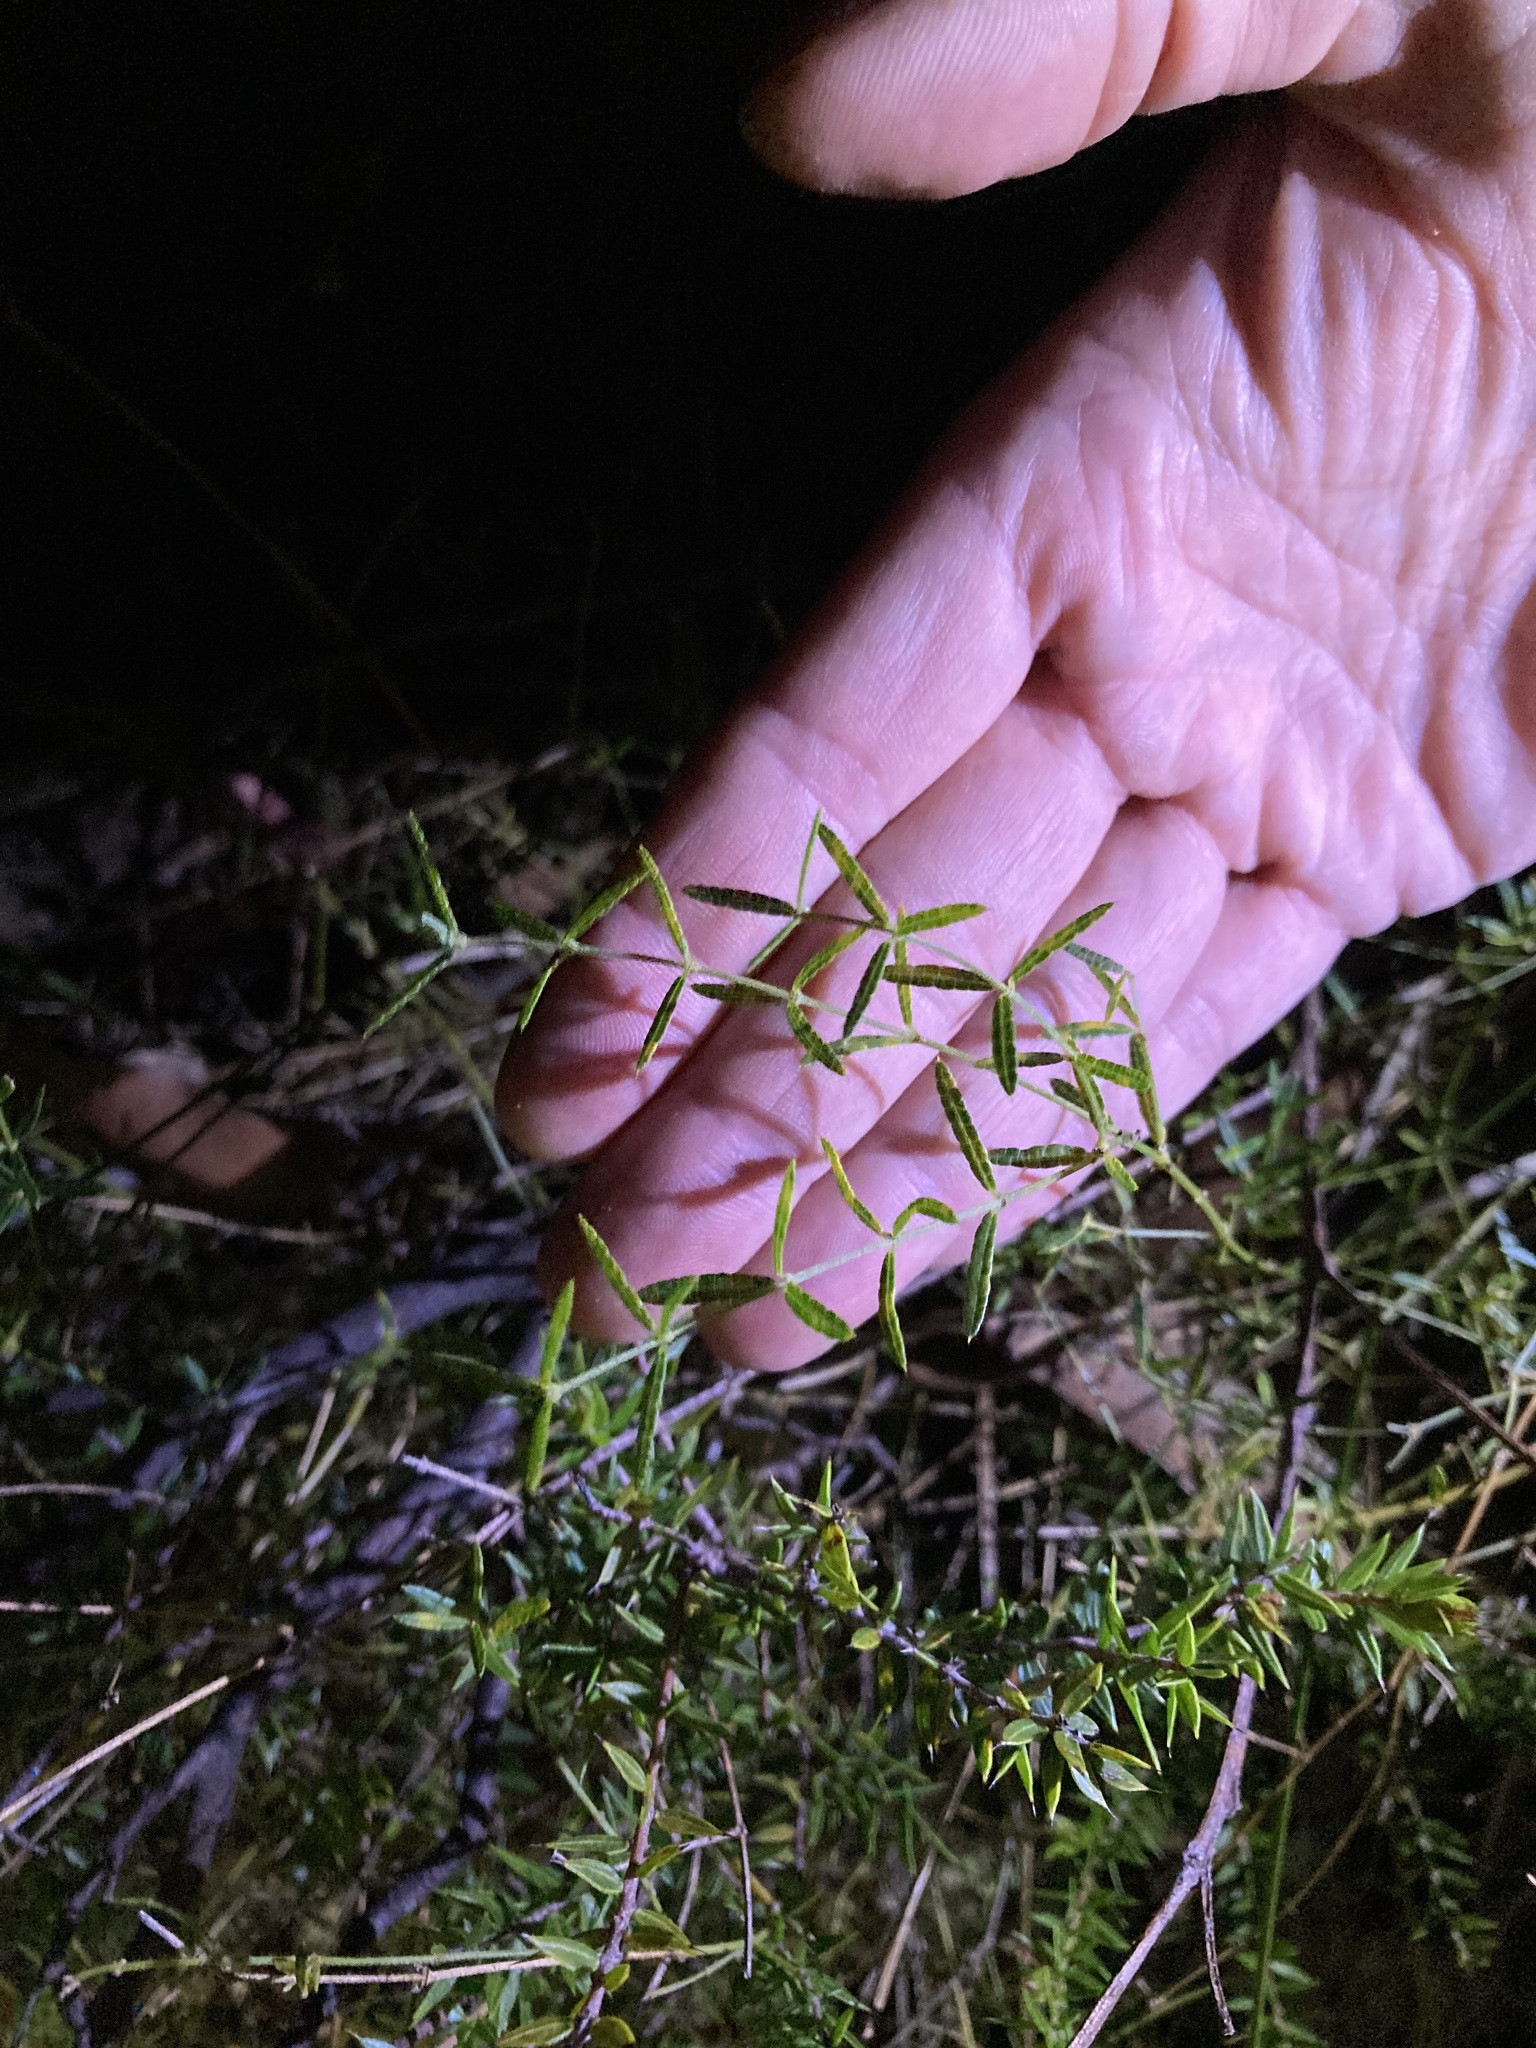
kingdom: Plantae
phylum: Tracheophyta
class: Magnoliopsida
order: Fabales
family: Fabaceae
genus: Mirbelia
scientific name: Mirbelia rubiifolia
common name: Heathy mirbelia
